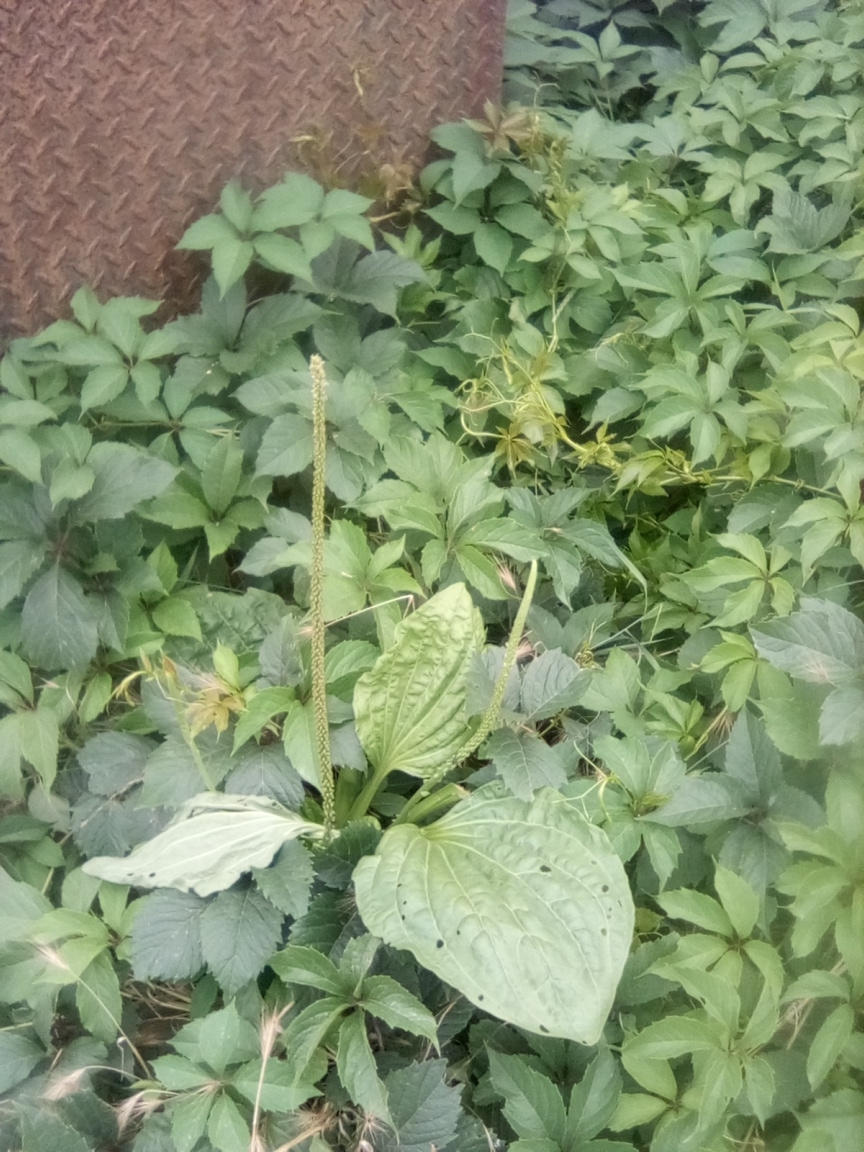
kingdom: Plantae
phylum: Tracheophyta
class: Magnoliopsida
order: Lamiales
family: Plantaginaceae
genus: Plantago
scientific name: Plantago major
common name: Common plantain
